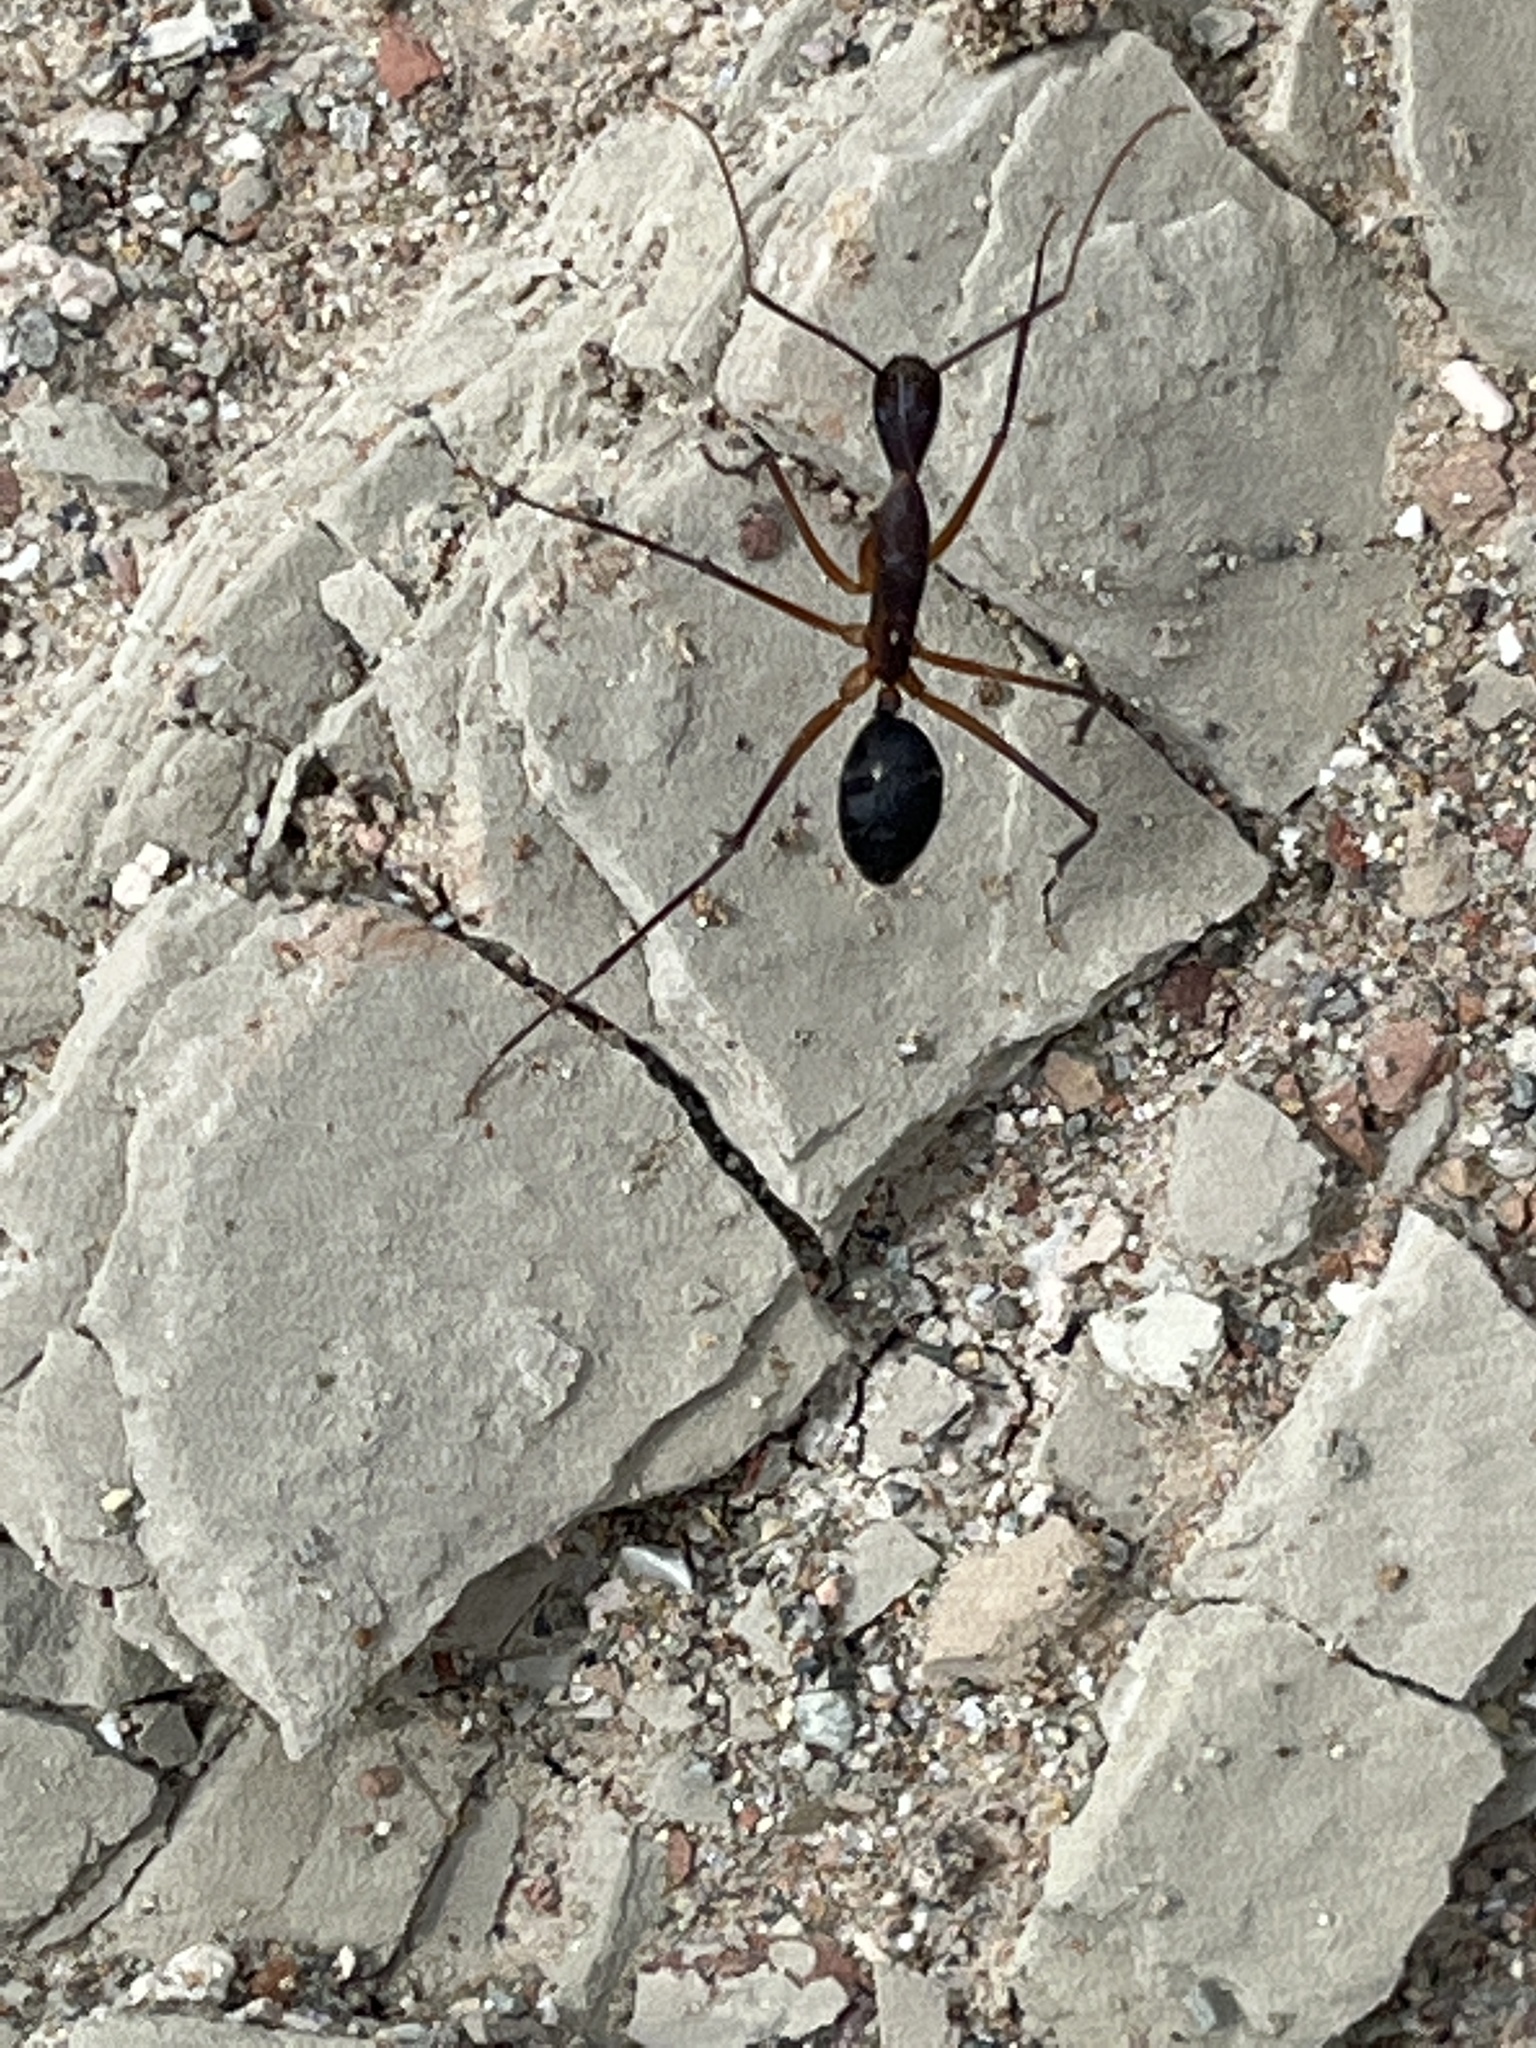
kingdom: Animalia
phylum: Arthropoda
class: Insecta
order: Hymenoptera
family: Formicidae
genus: Camponotus
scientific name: Camponotus etiolipes
